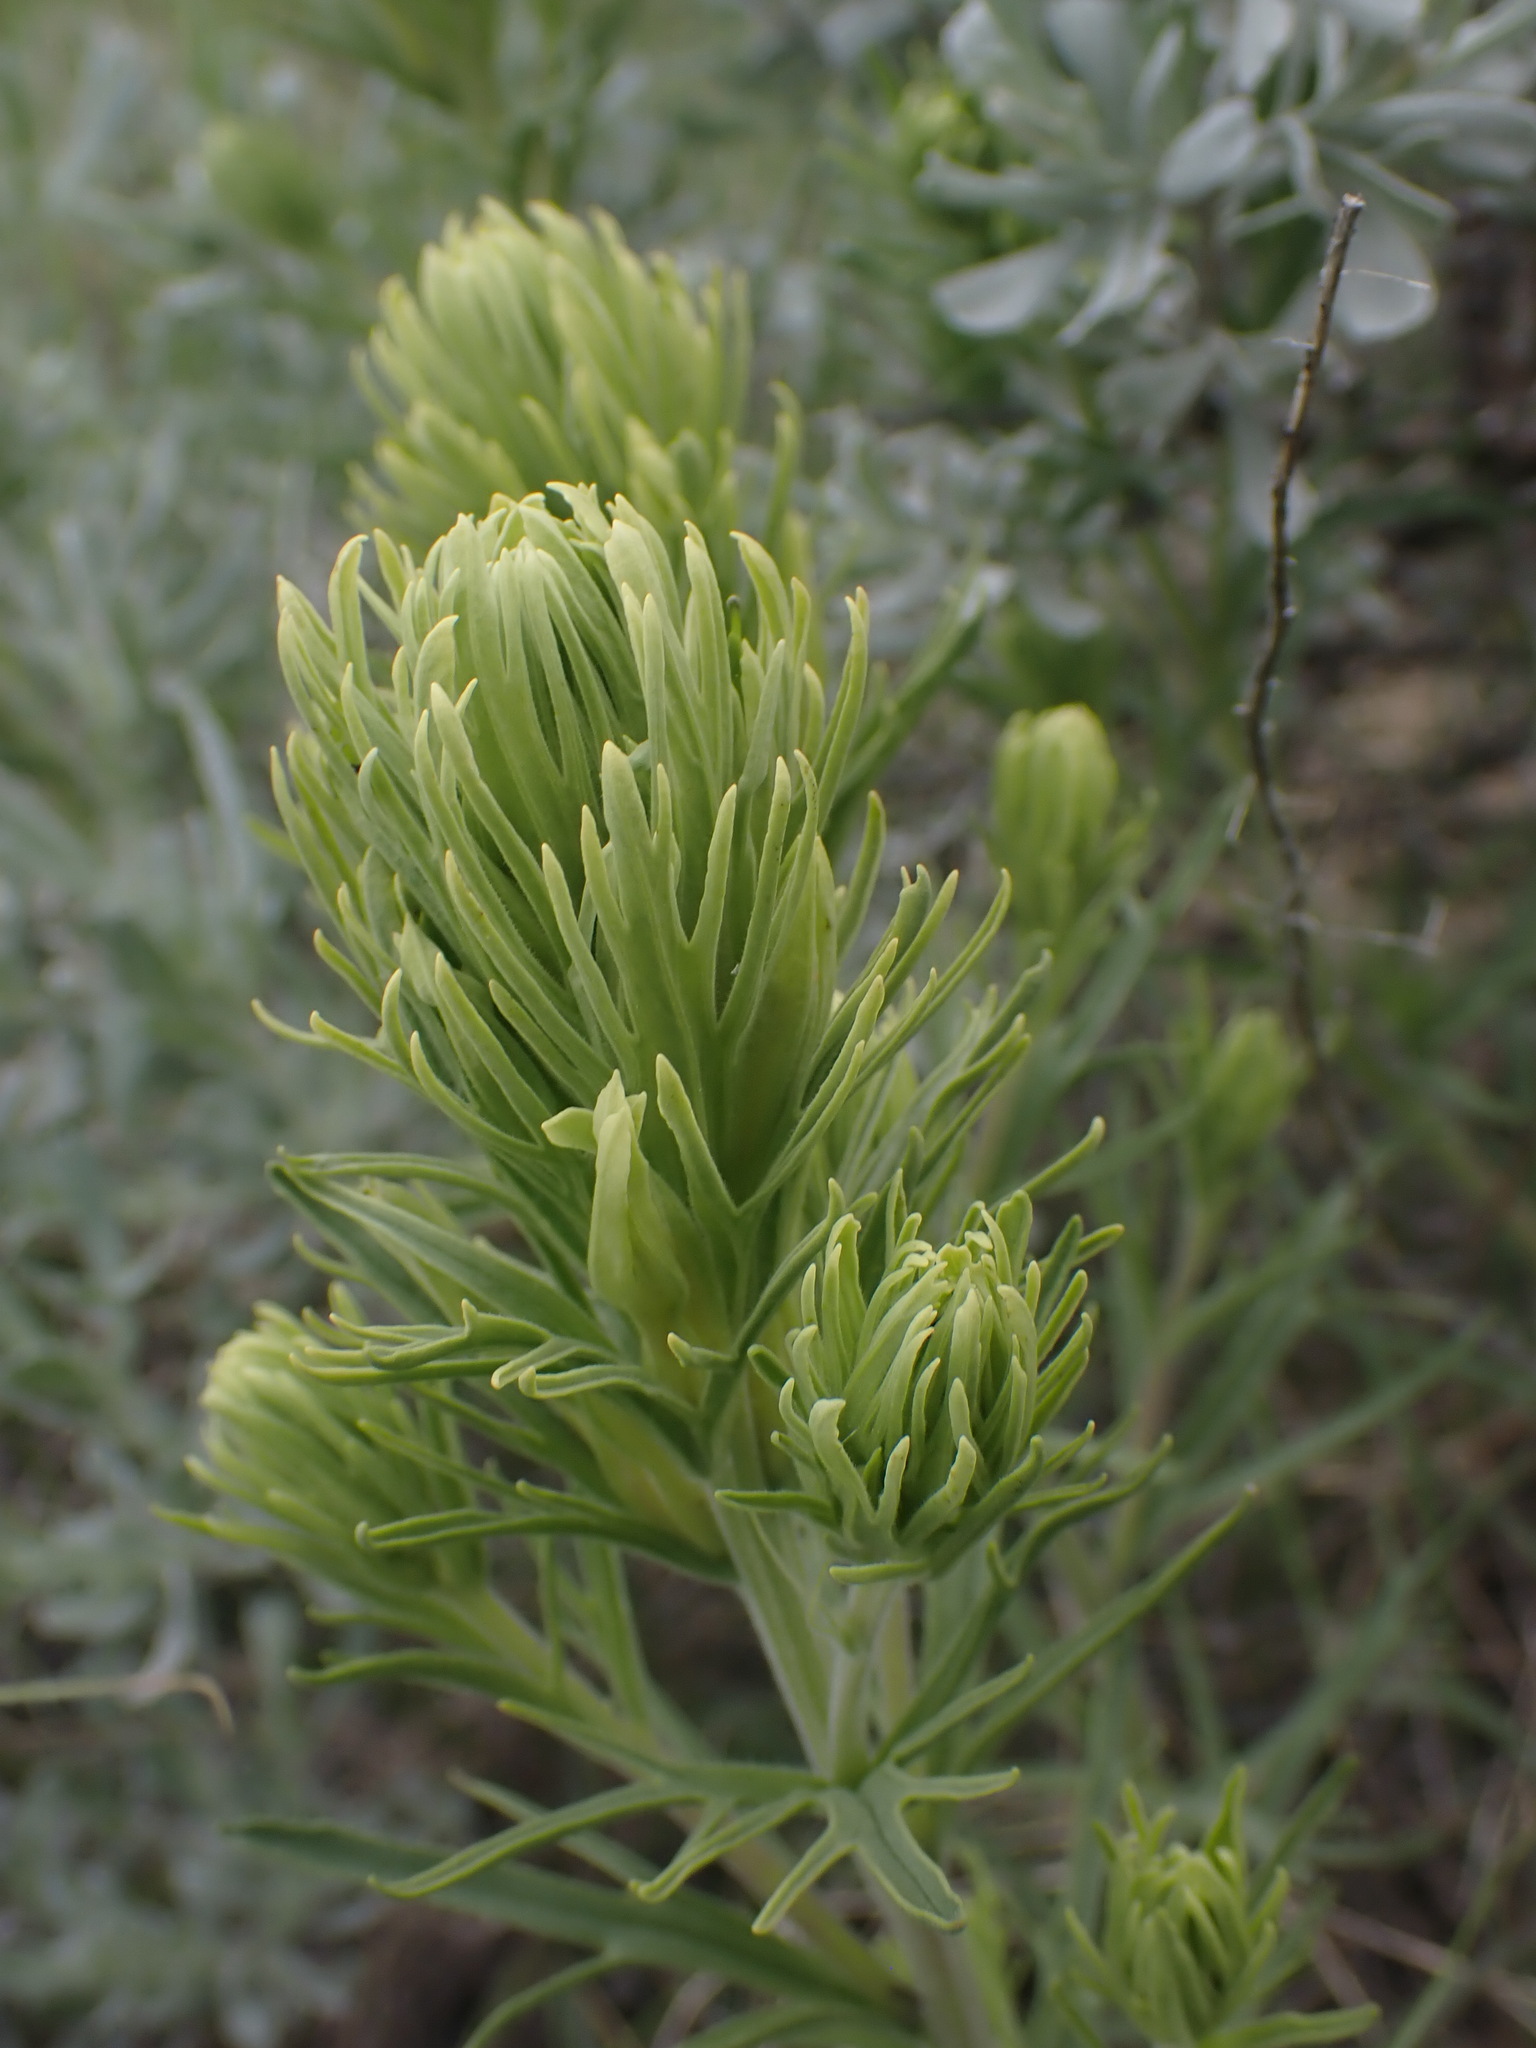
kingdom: Plantae
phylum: Tracheophyta
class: Magnoliopsida
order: Lamiales
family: Orobanchaceae
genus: Castilleja
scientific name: Castilleja thompsonii
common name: Thompson's paintbrush
